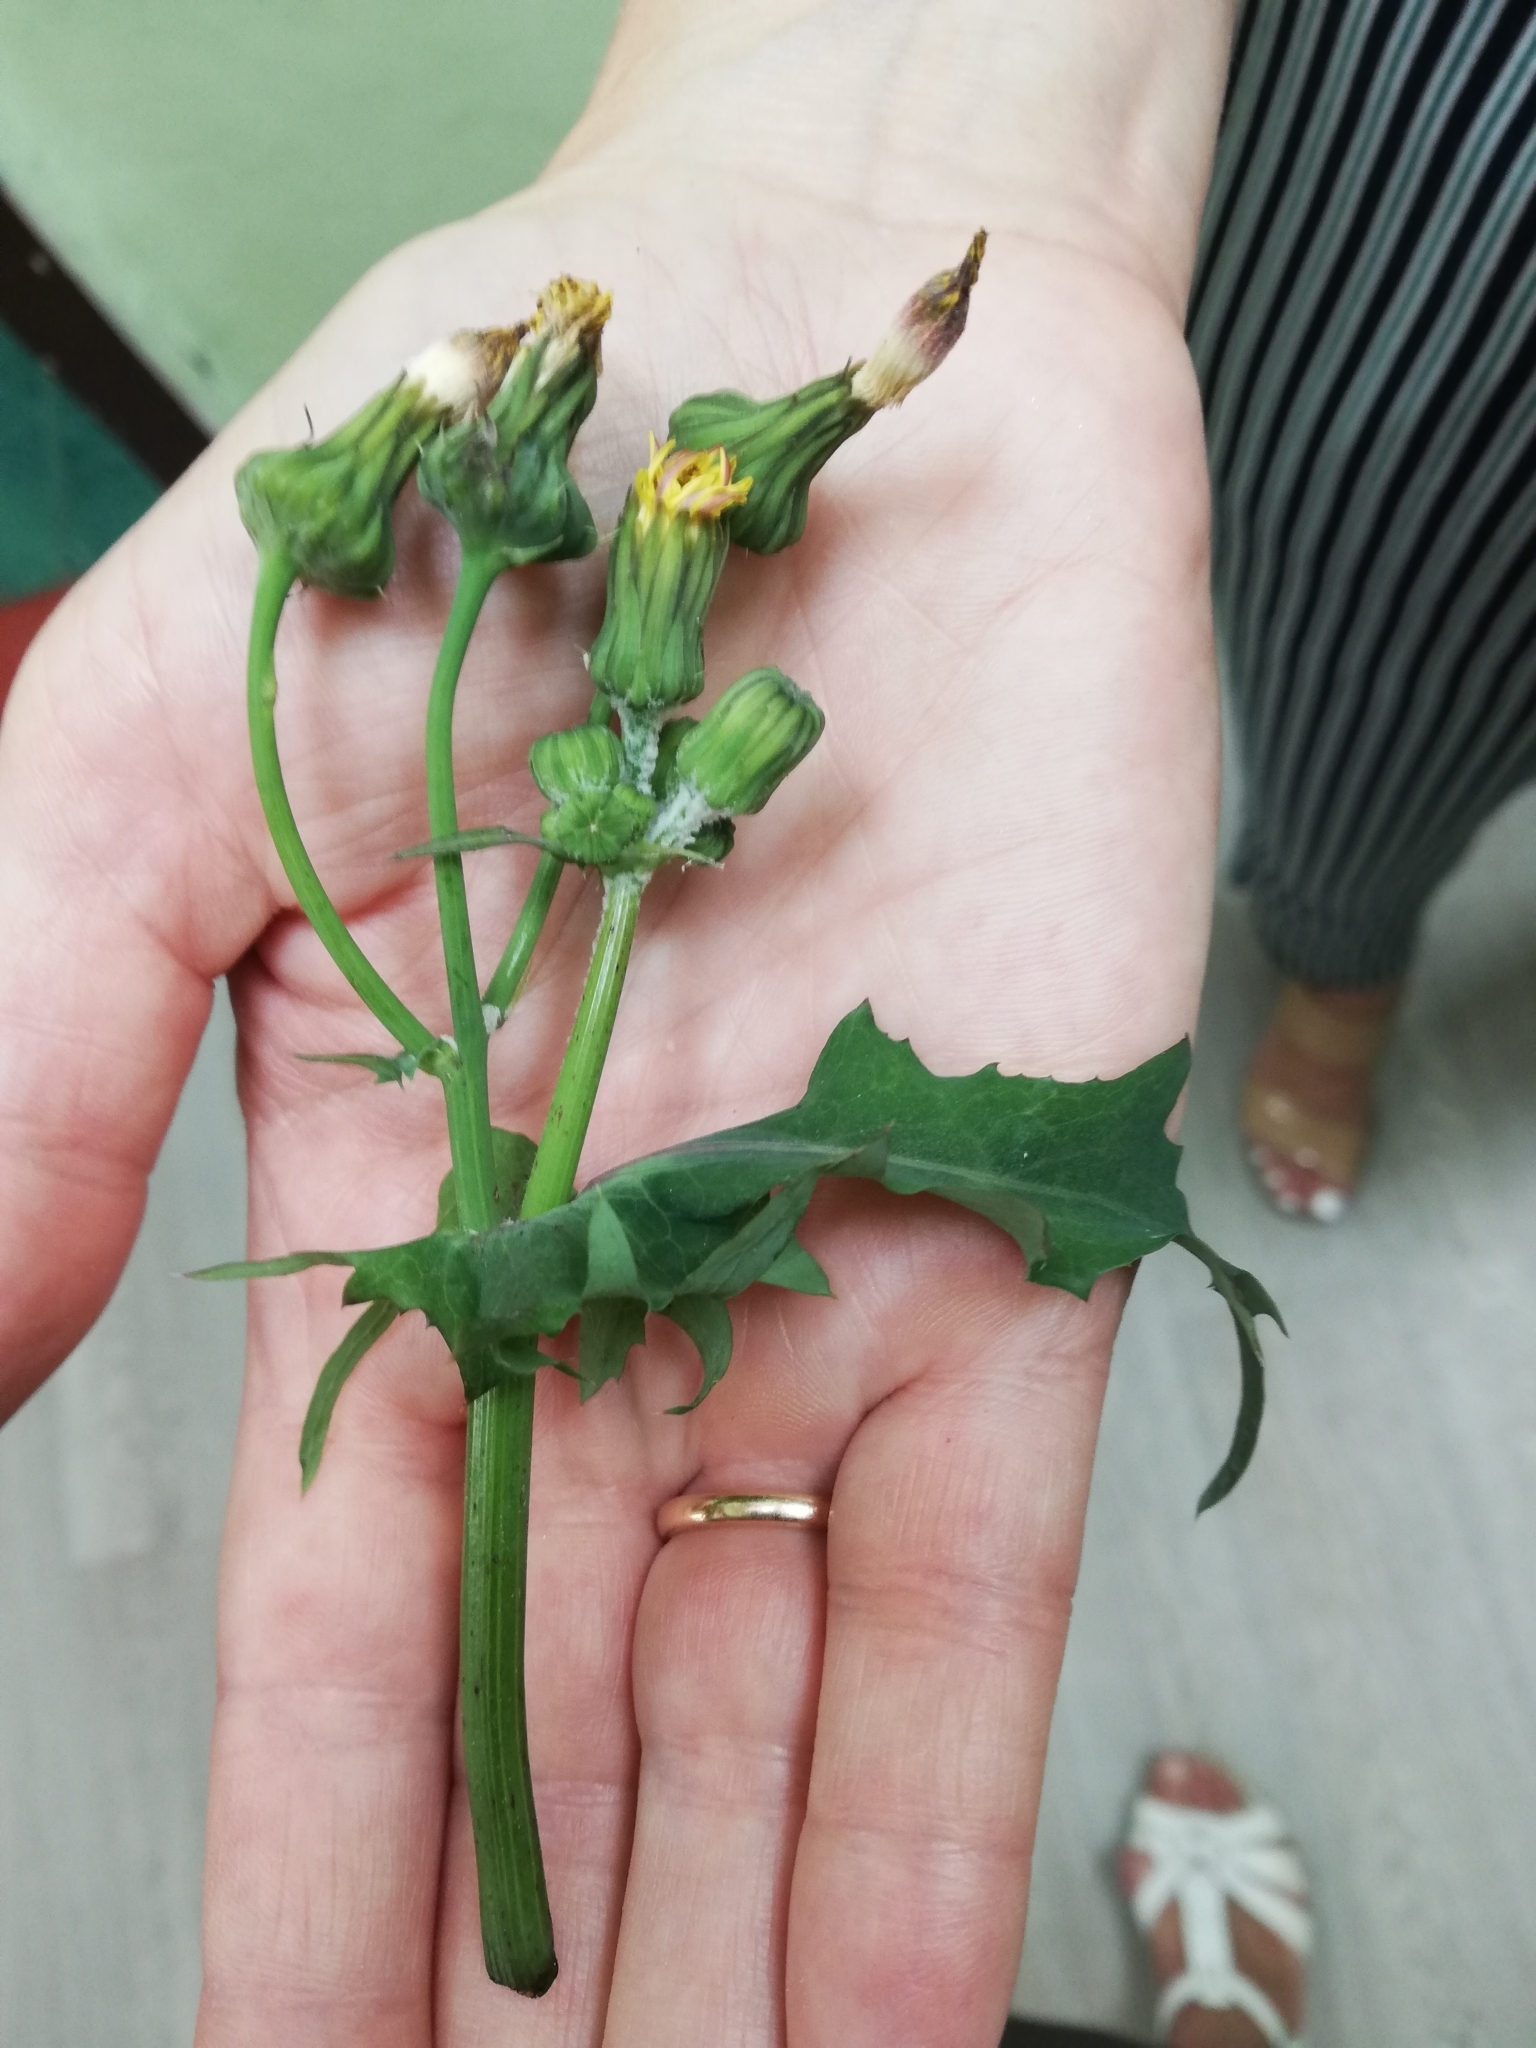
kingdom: Plantae
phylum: Tracheophyta
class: Magnoliopsida
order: Asterales
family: Asteraceae
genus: Sonchus
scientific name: Sonchus oleraceus
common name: Common sowthistle
